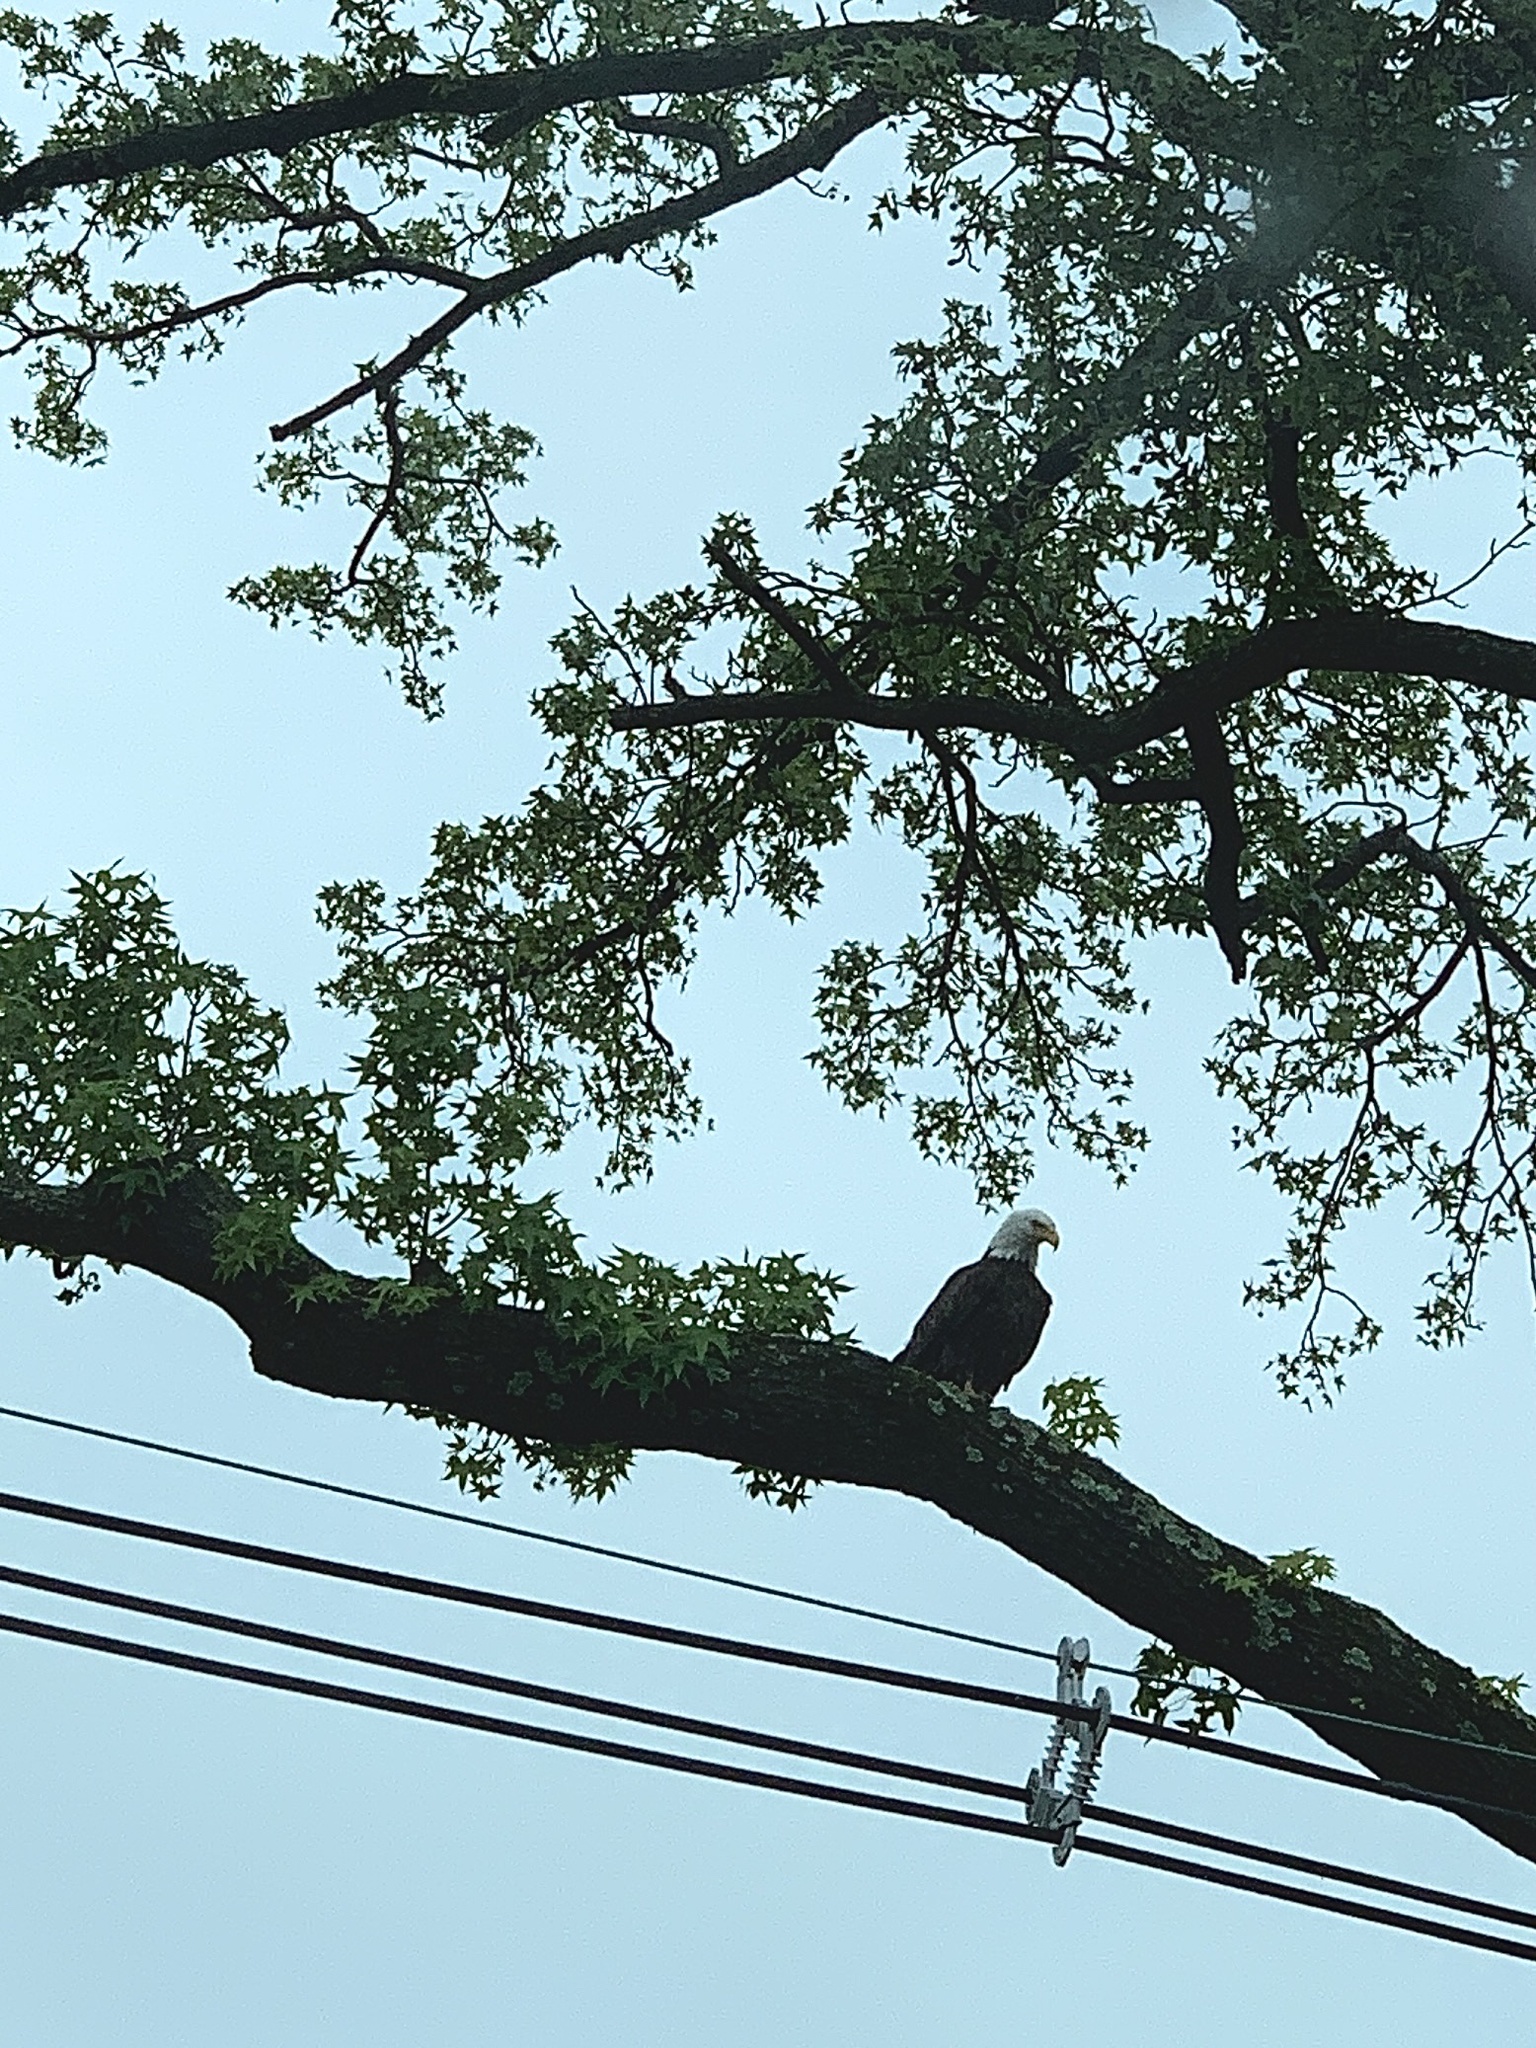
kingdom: Animalia
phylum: Chordata
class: Aves
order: Accipitriformes
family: Accipitridae
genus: Haliaeetus
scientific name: Haliaeetus leucocephalus
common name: Bald eagle
